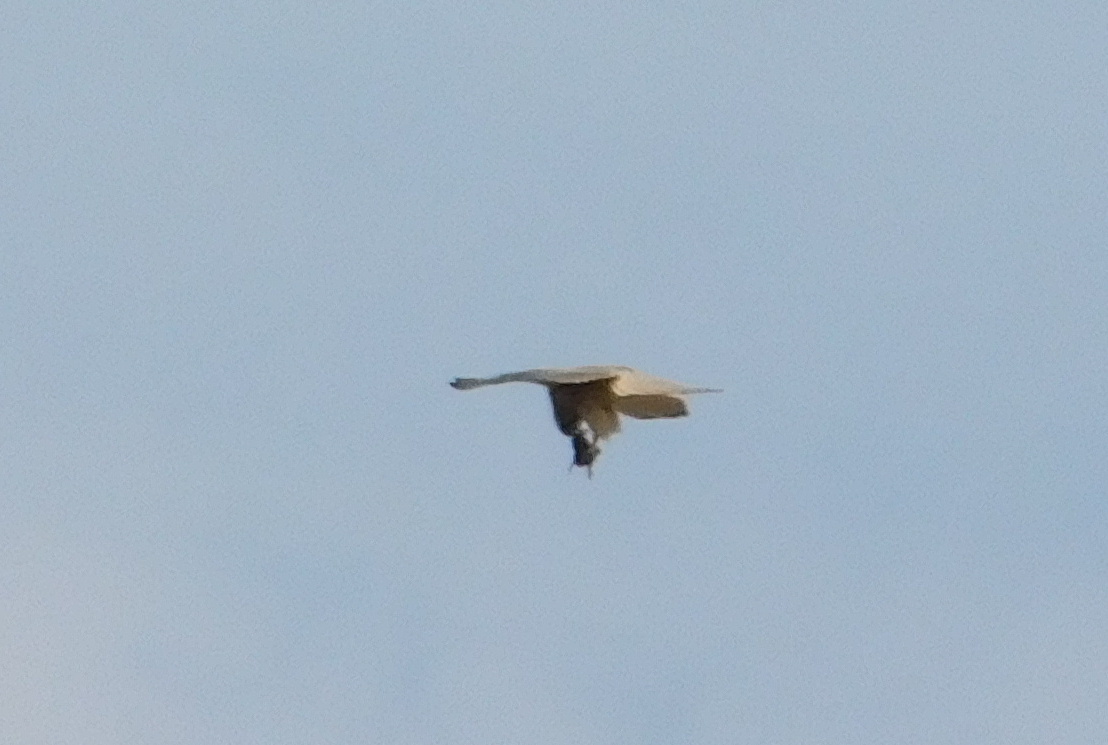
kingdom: Animalia
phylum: Chordata
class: Aves
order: Falconiformes
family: Falconidae
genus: Falco
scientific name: Falco tinnunculus
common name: Common kestrel
